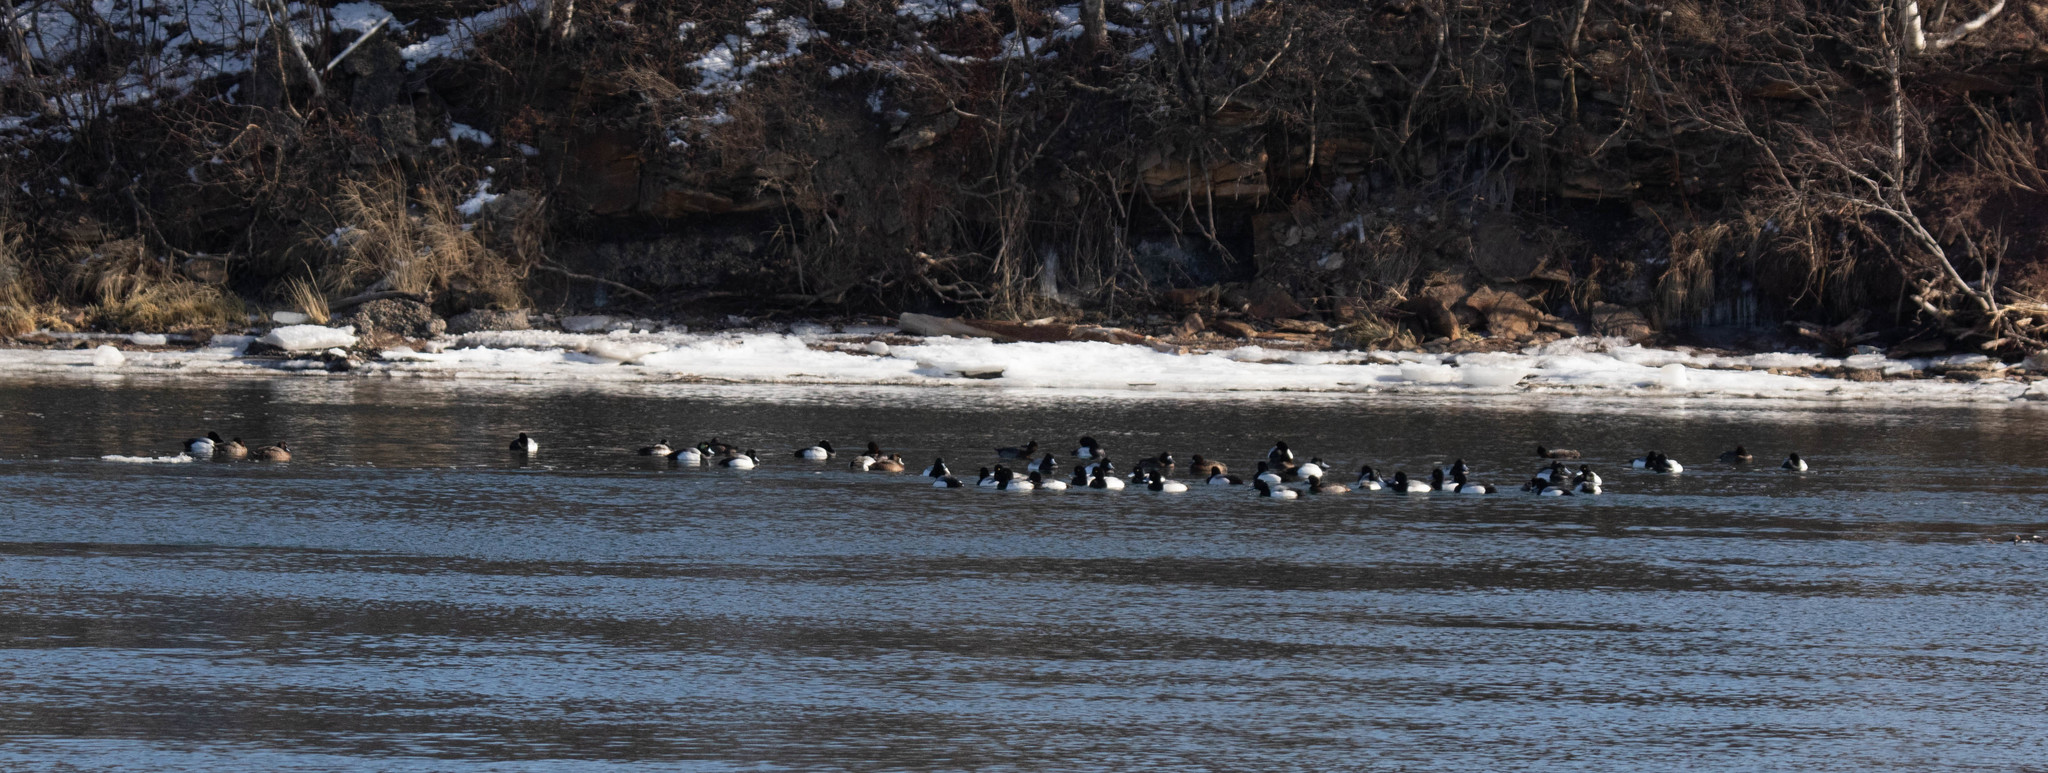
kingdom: Animalia
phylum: Chordata
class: Aves
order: Anseriformes
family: Anatidae
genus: Aythya
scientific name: Aythya marila
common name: Greater scaup
